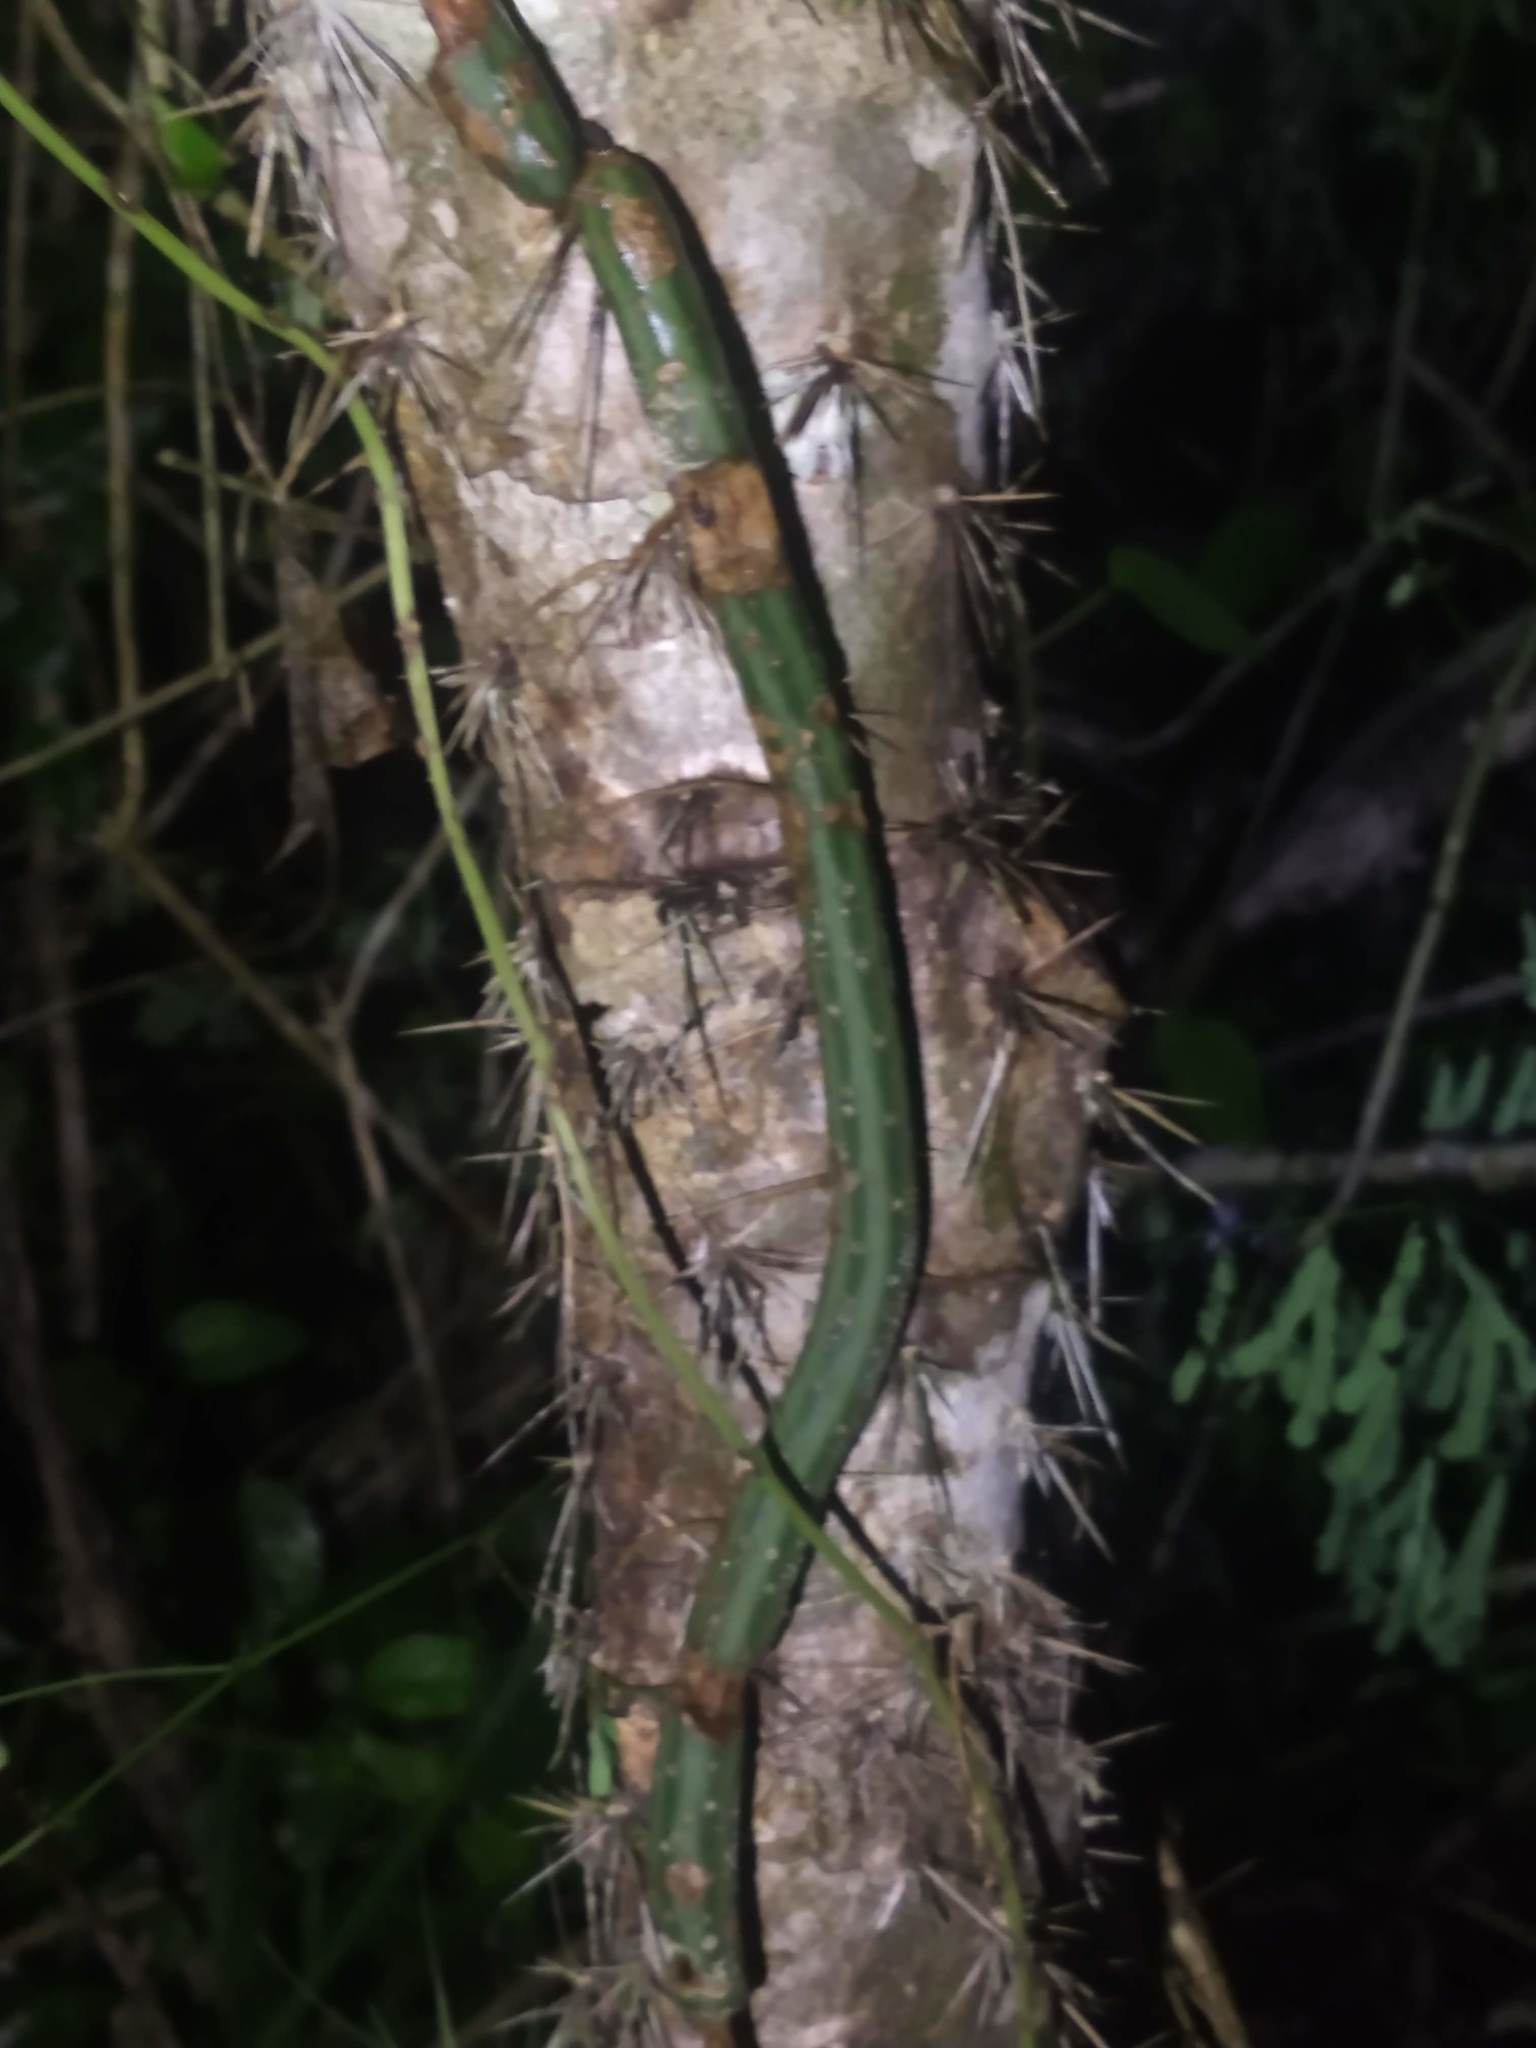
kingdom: Plantae
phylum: Tracheophyta
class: Magnoliopsida
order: Caryophyllales
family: Cactaceae
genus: Selenicereus
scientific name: Selenicereus grandiflorus
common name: Queen of the night
